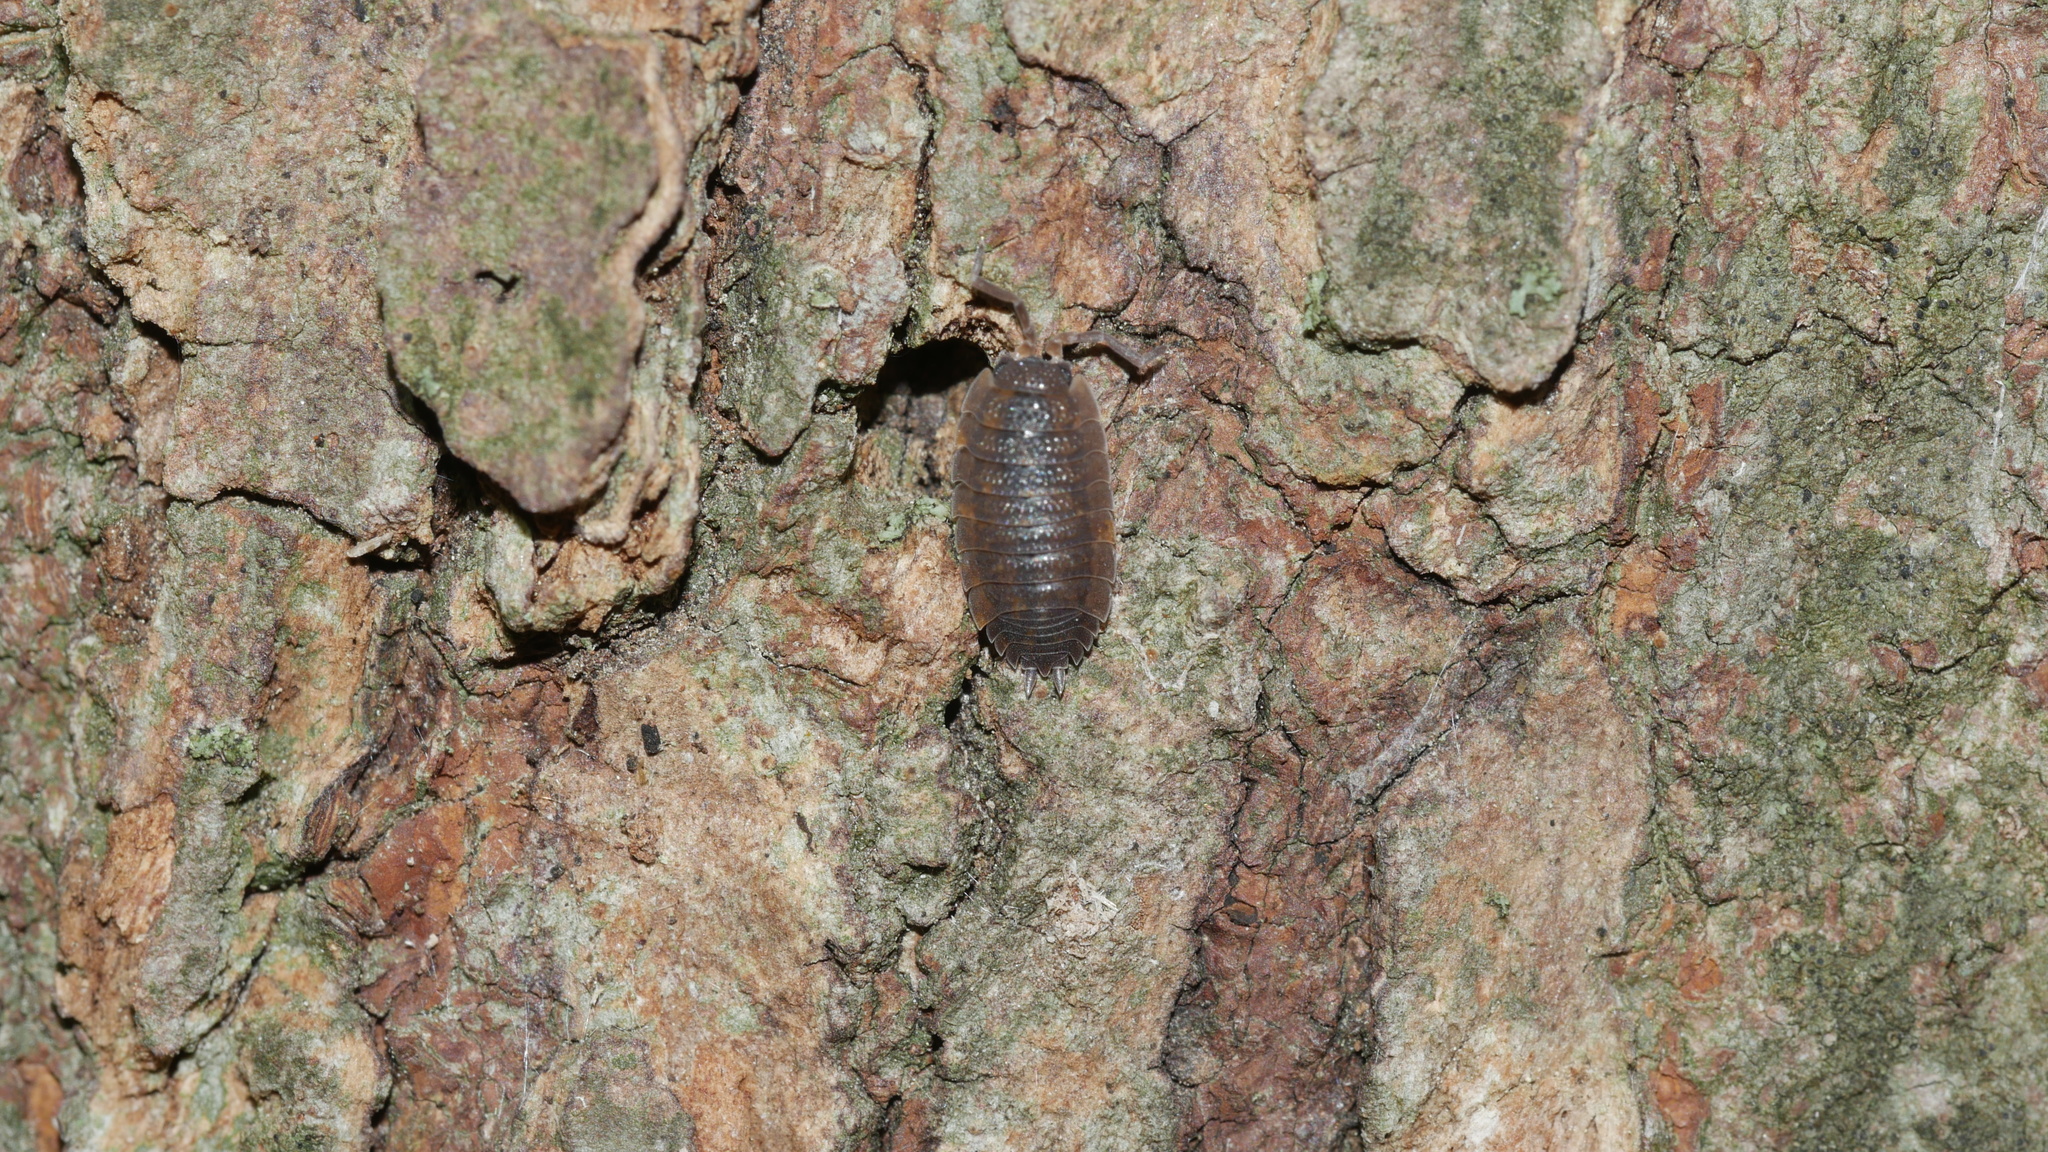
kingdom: Animalia
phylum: Arthropoda
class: Malacostraca
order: Isopoda
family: Porcellionidae
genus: Porcellio
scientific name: Porcellio scaber
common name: Common rough woodlouse
